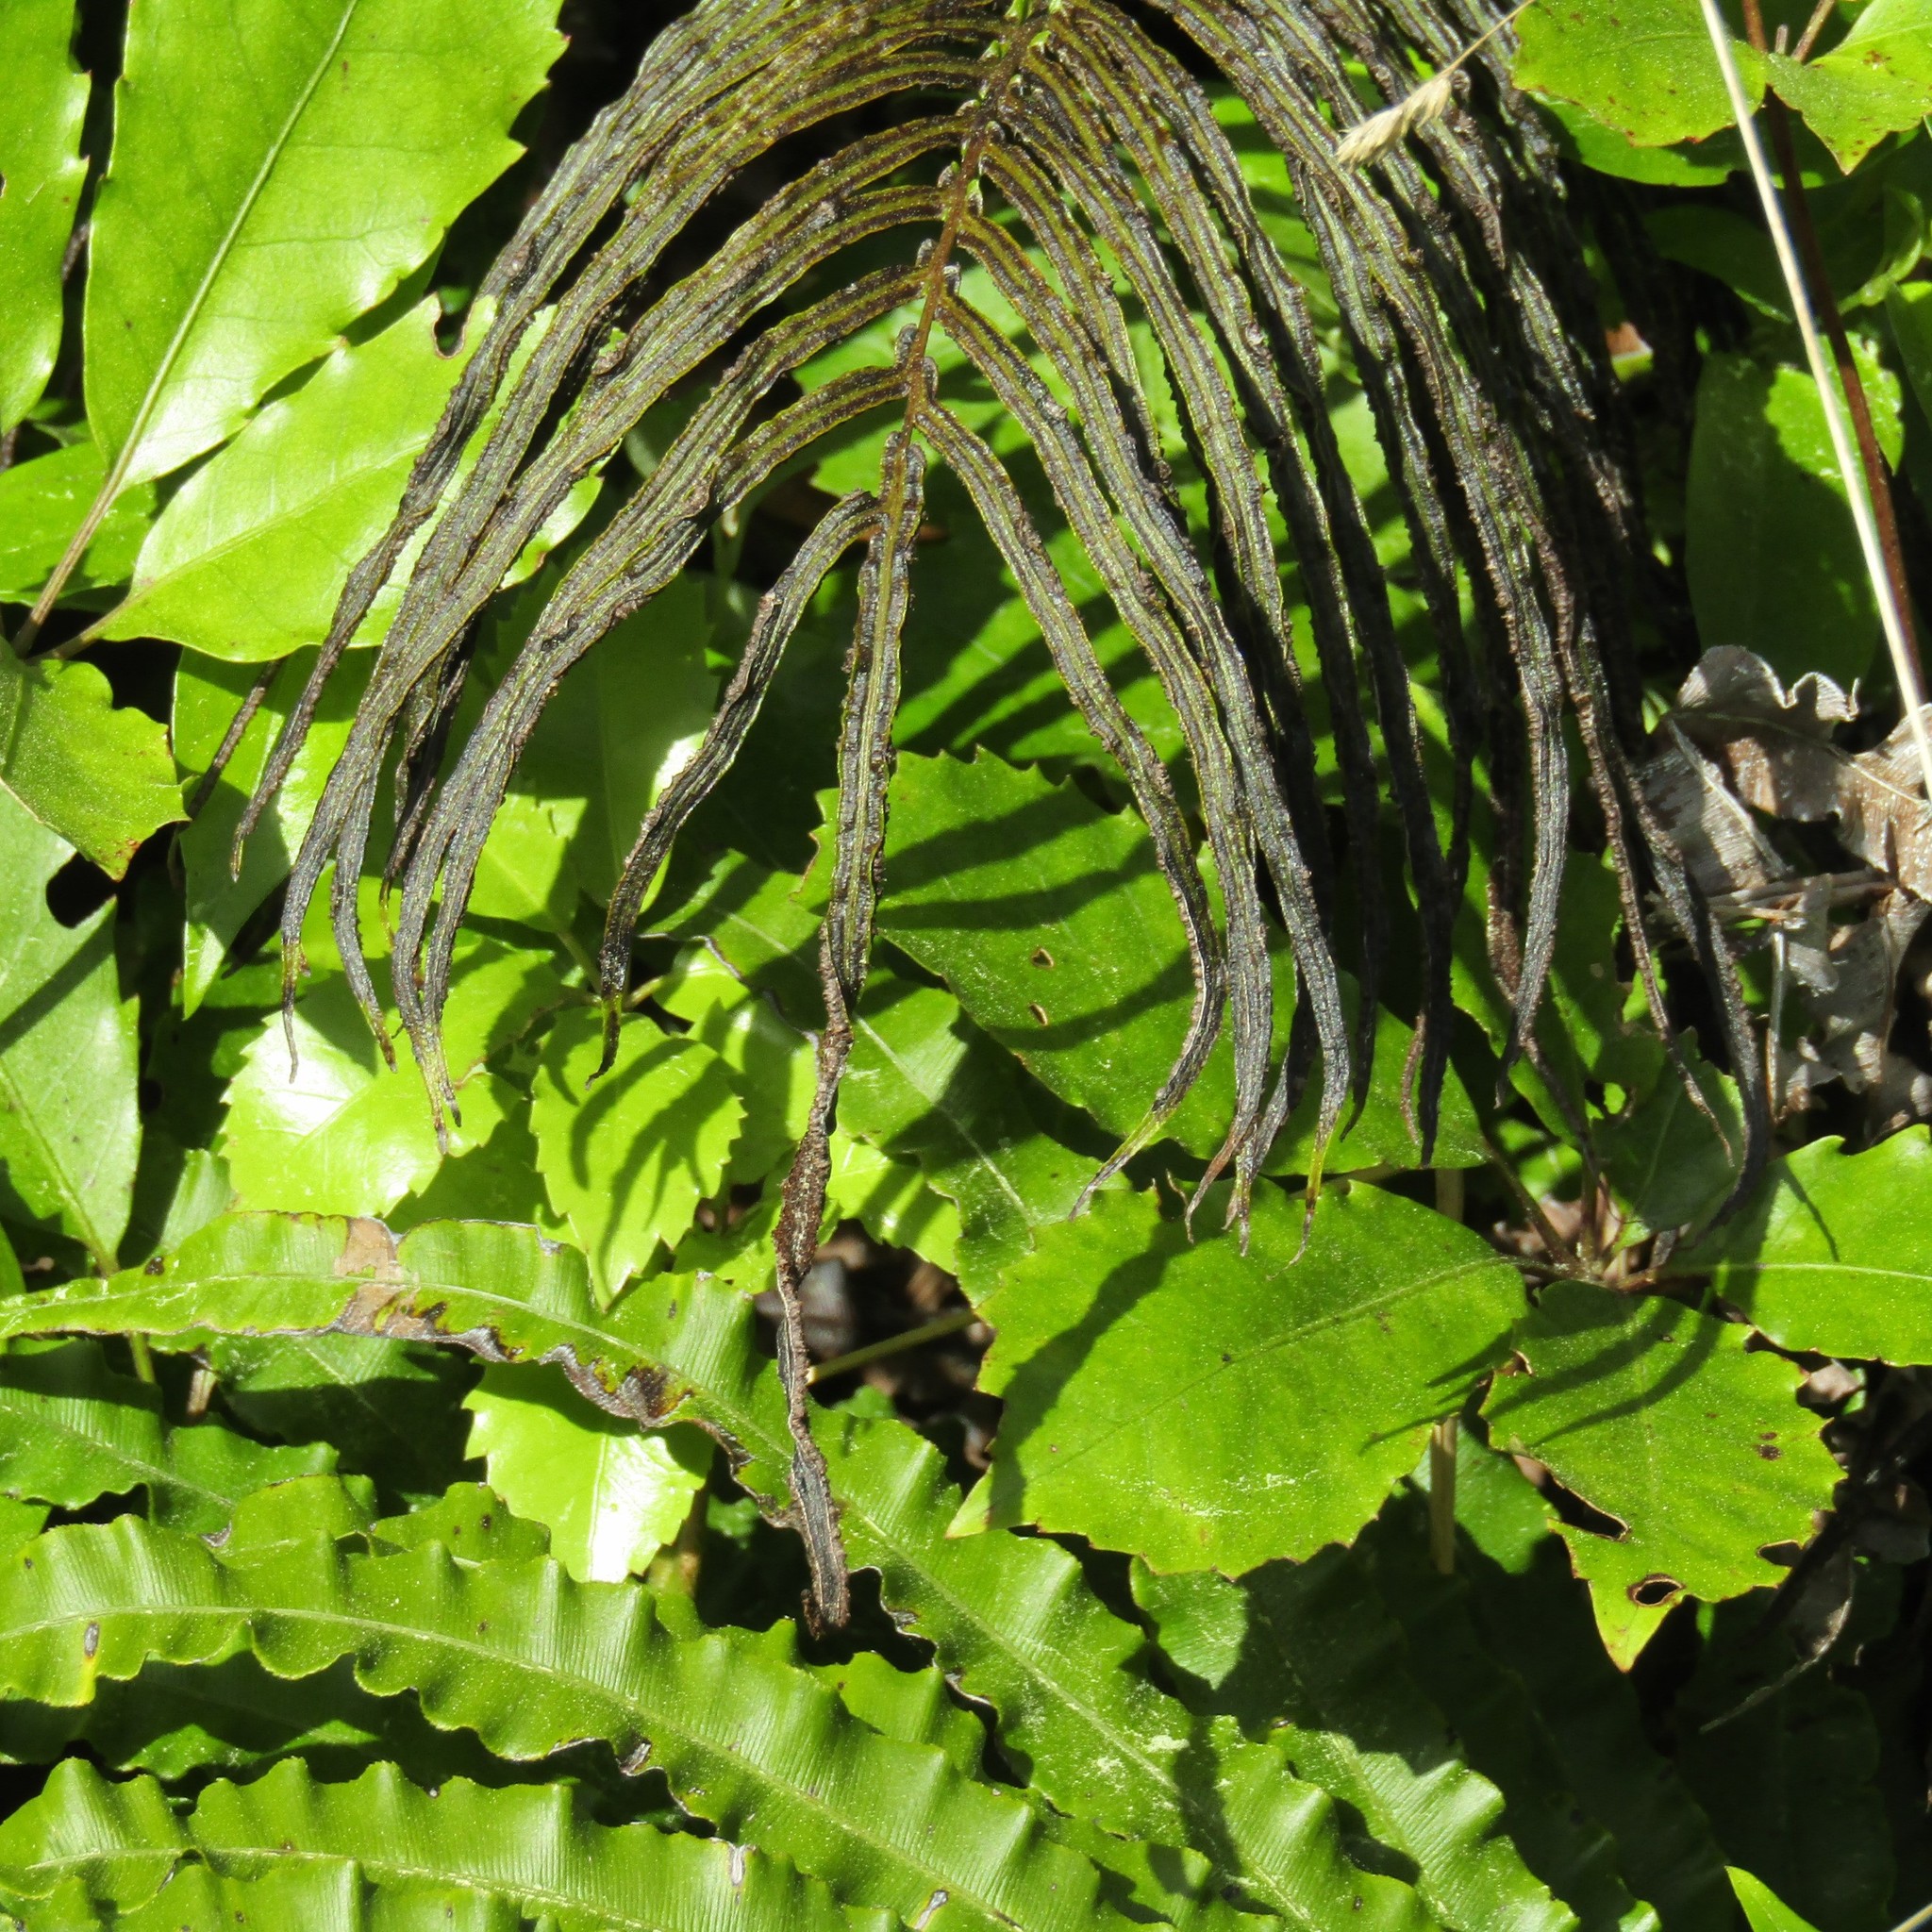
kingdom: Plantae
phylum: Tracheophyta
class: Polypodiopsida
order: Polypodiales
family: Blechnaceae
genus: Parablechnum
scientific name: Parablechnum novae-zelandiae
